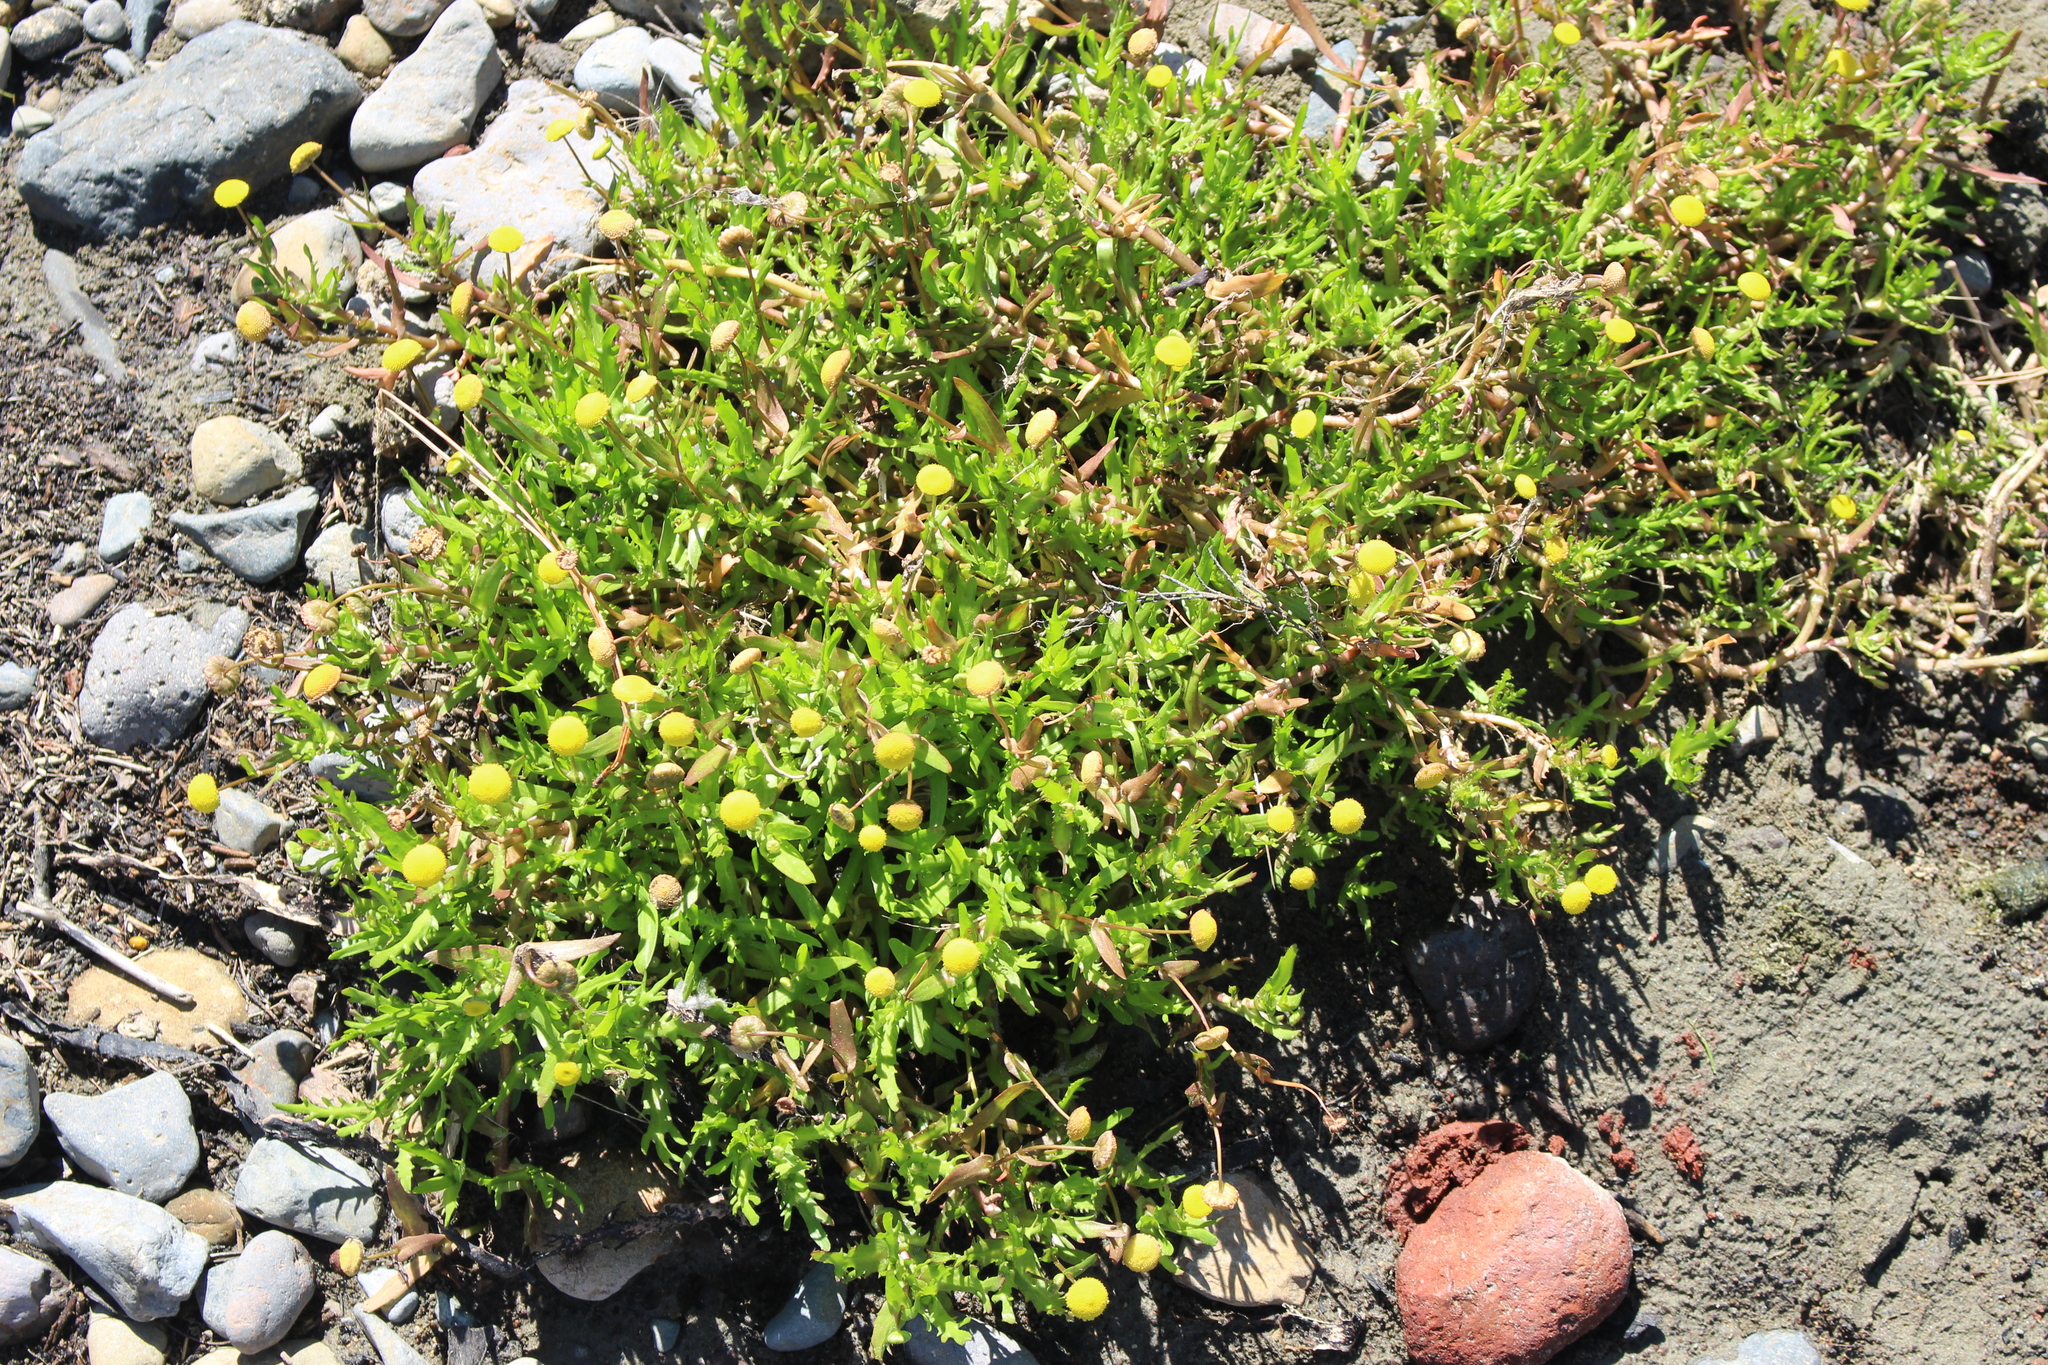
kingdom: Plantae
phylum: Tracheophyta
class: Magnoliopsida
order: Asterales
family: Asteraceae
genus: Cotula
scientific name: Cotula coronopifolia
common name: Buttonweed
